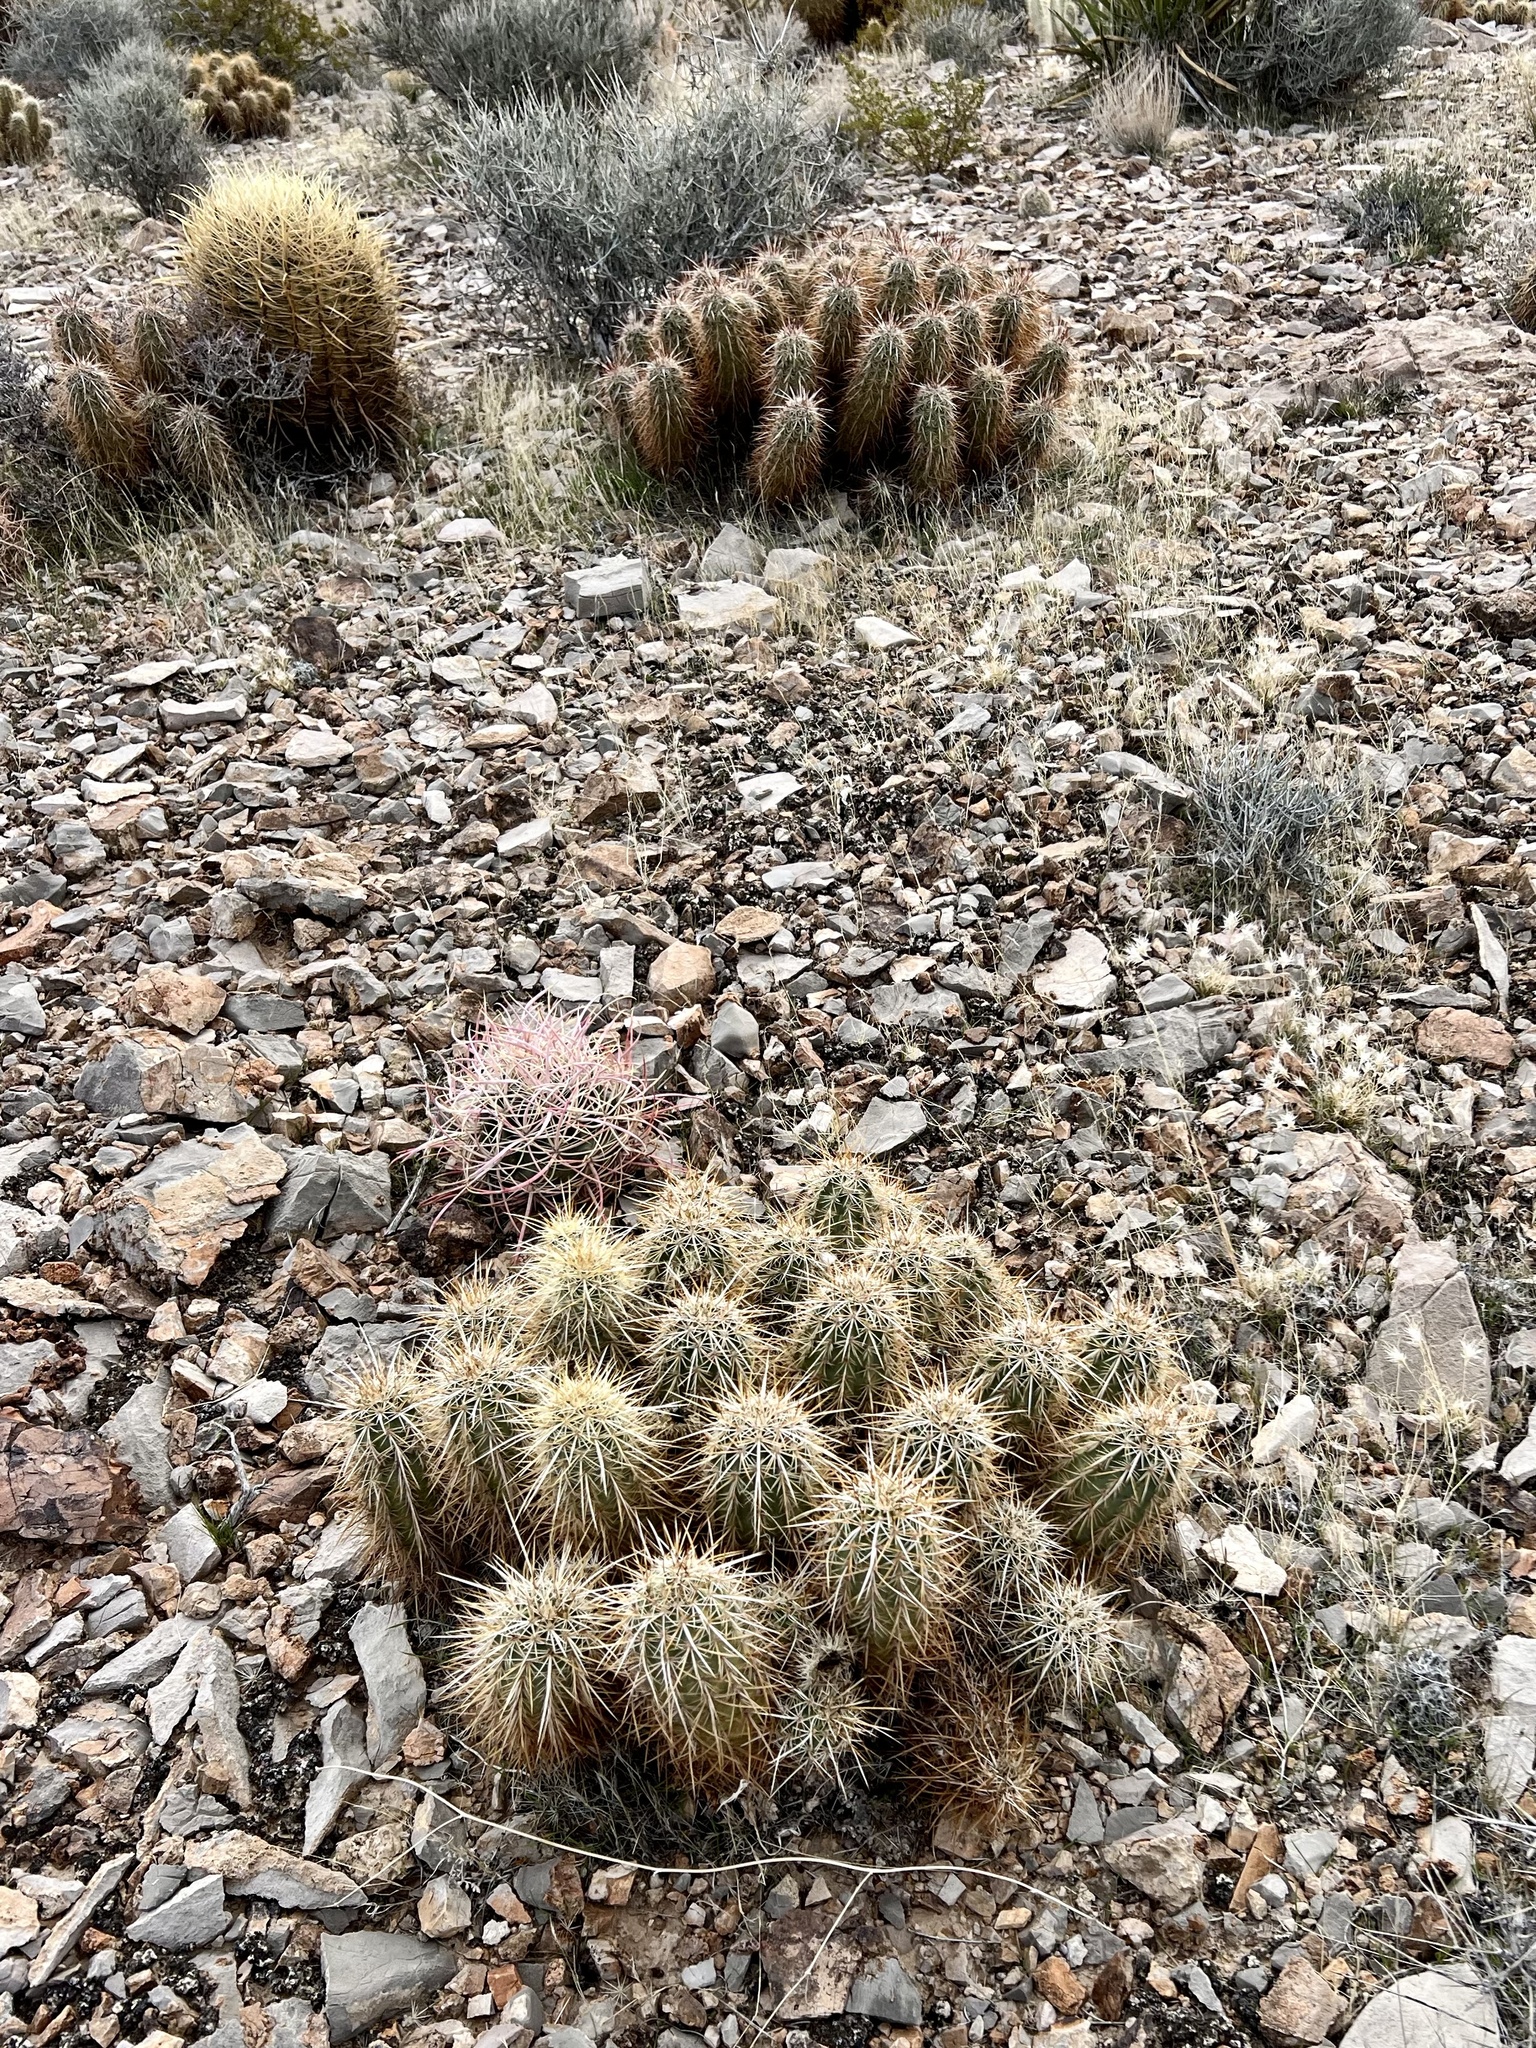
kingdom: Plantae
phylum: Tracheophyta
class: Magnoliopsida
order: Caryophyllales
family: Cactaceae
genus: Echinocereus
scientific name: Echinocereus engelmannii
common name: Engelmann's hedgehog cactus
